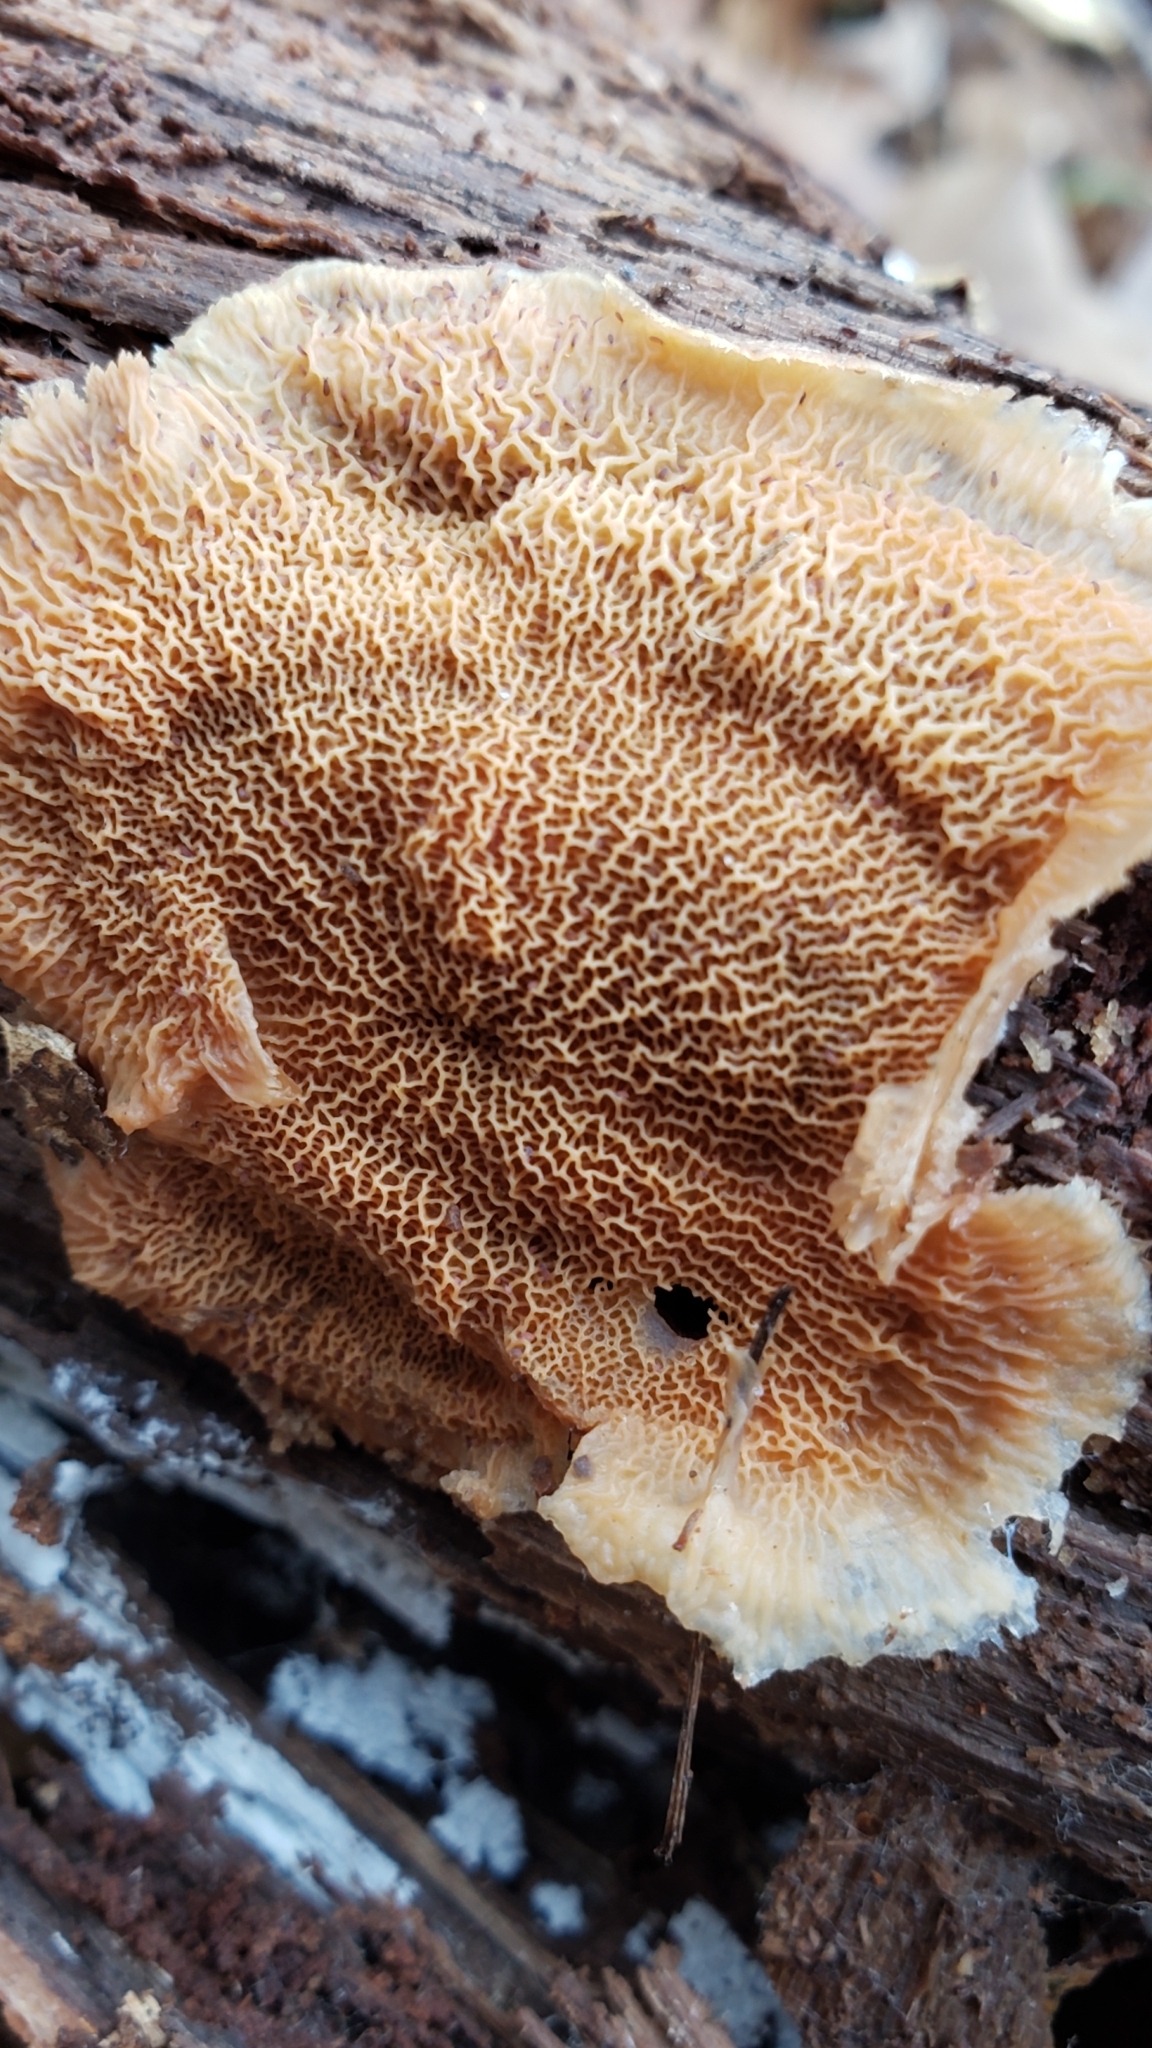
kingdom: Fungi
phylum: Basidiomycota
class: Agaricomycetes
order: Polyporales
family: Meruliaceae
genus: Phlebia
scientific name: Phlebia tremellosa
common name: Jelly rot
